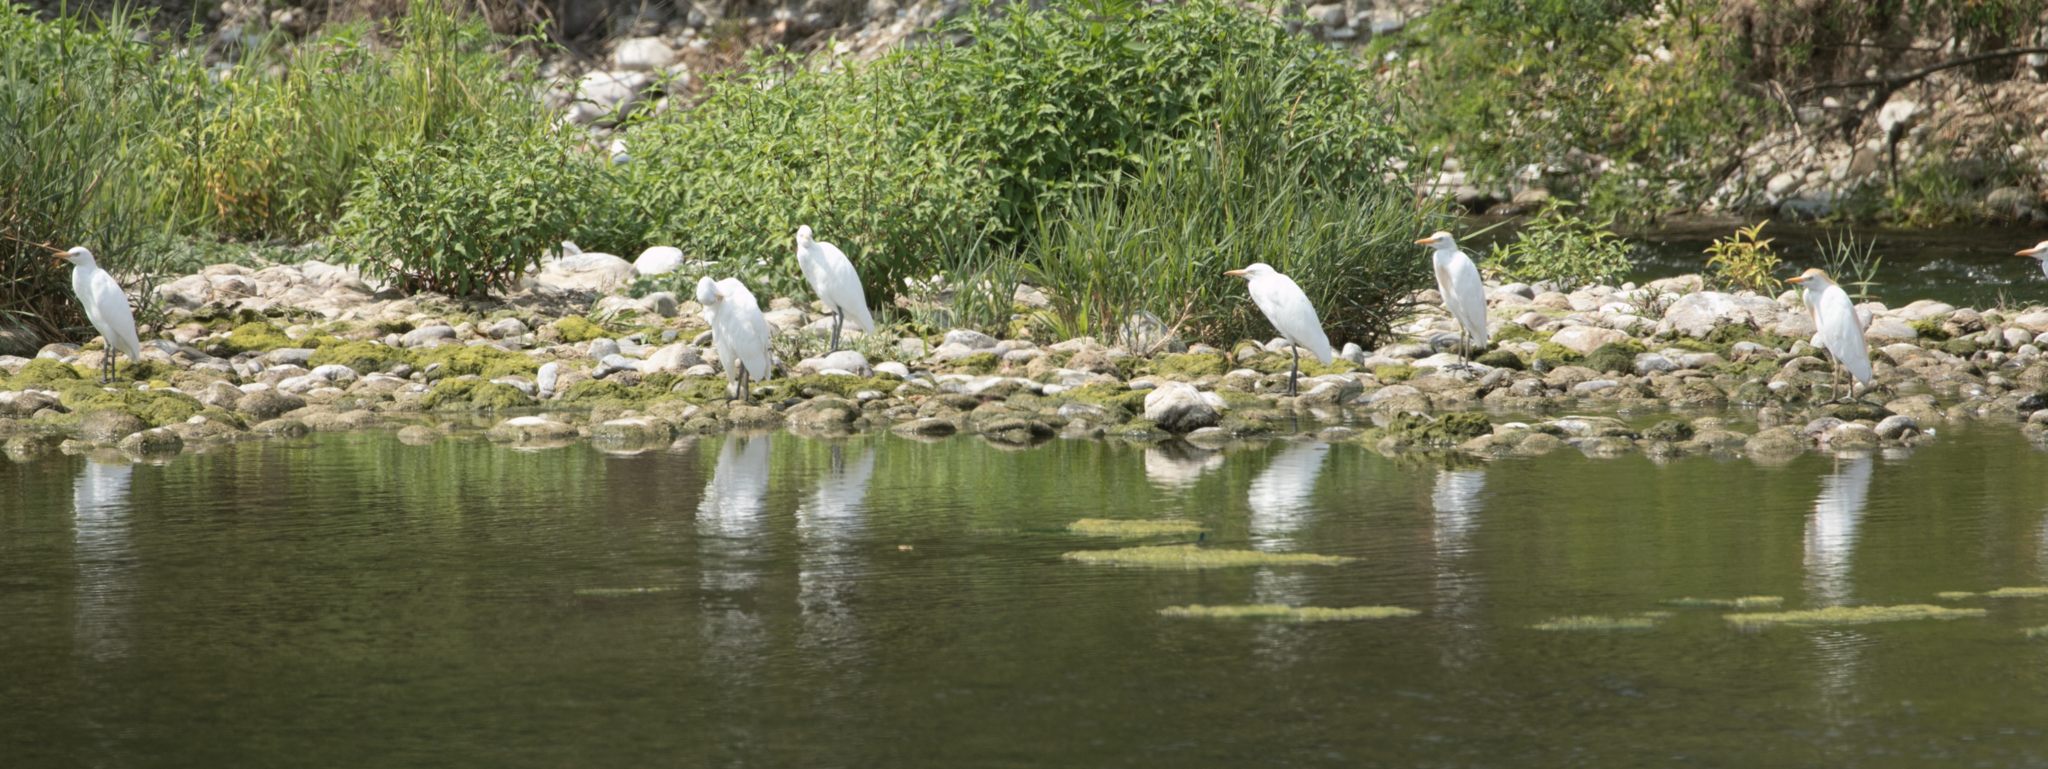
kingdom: Animalia
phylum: Chordata
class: Aves
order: Pelecaniformes
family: Ardeidae
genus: Bubulcus
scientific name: Bubulcus ibis
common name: Cattle egret
